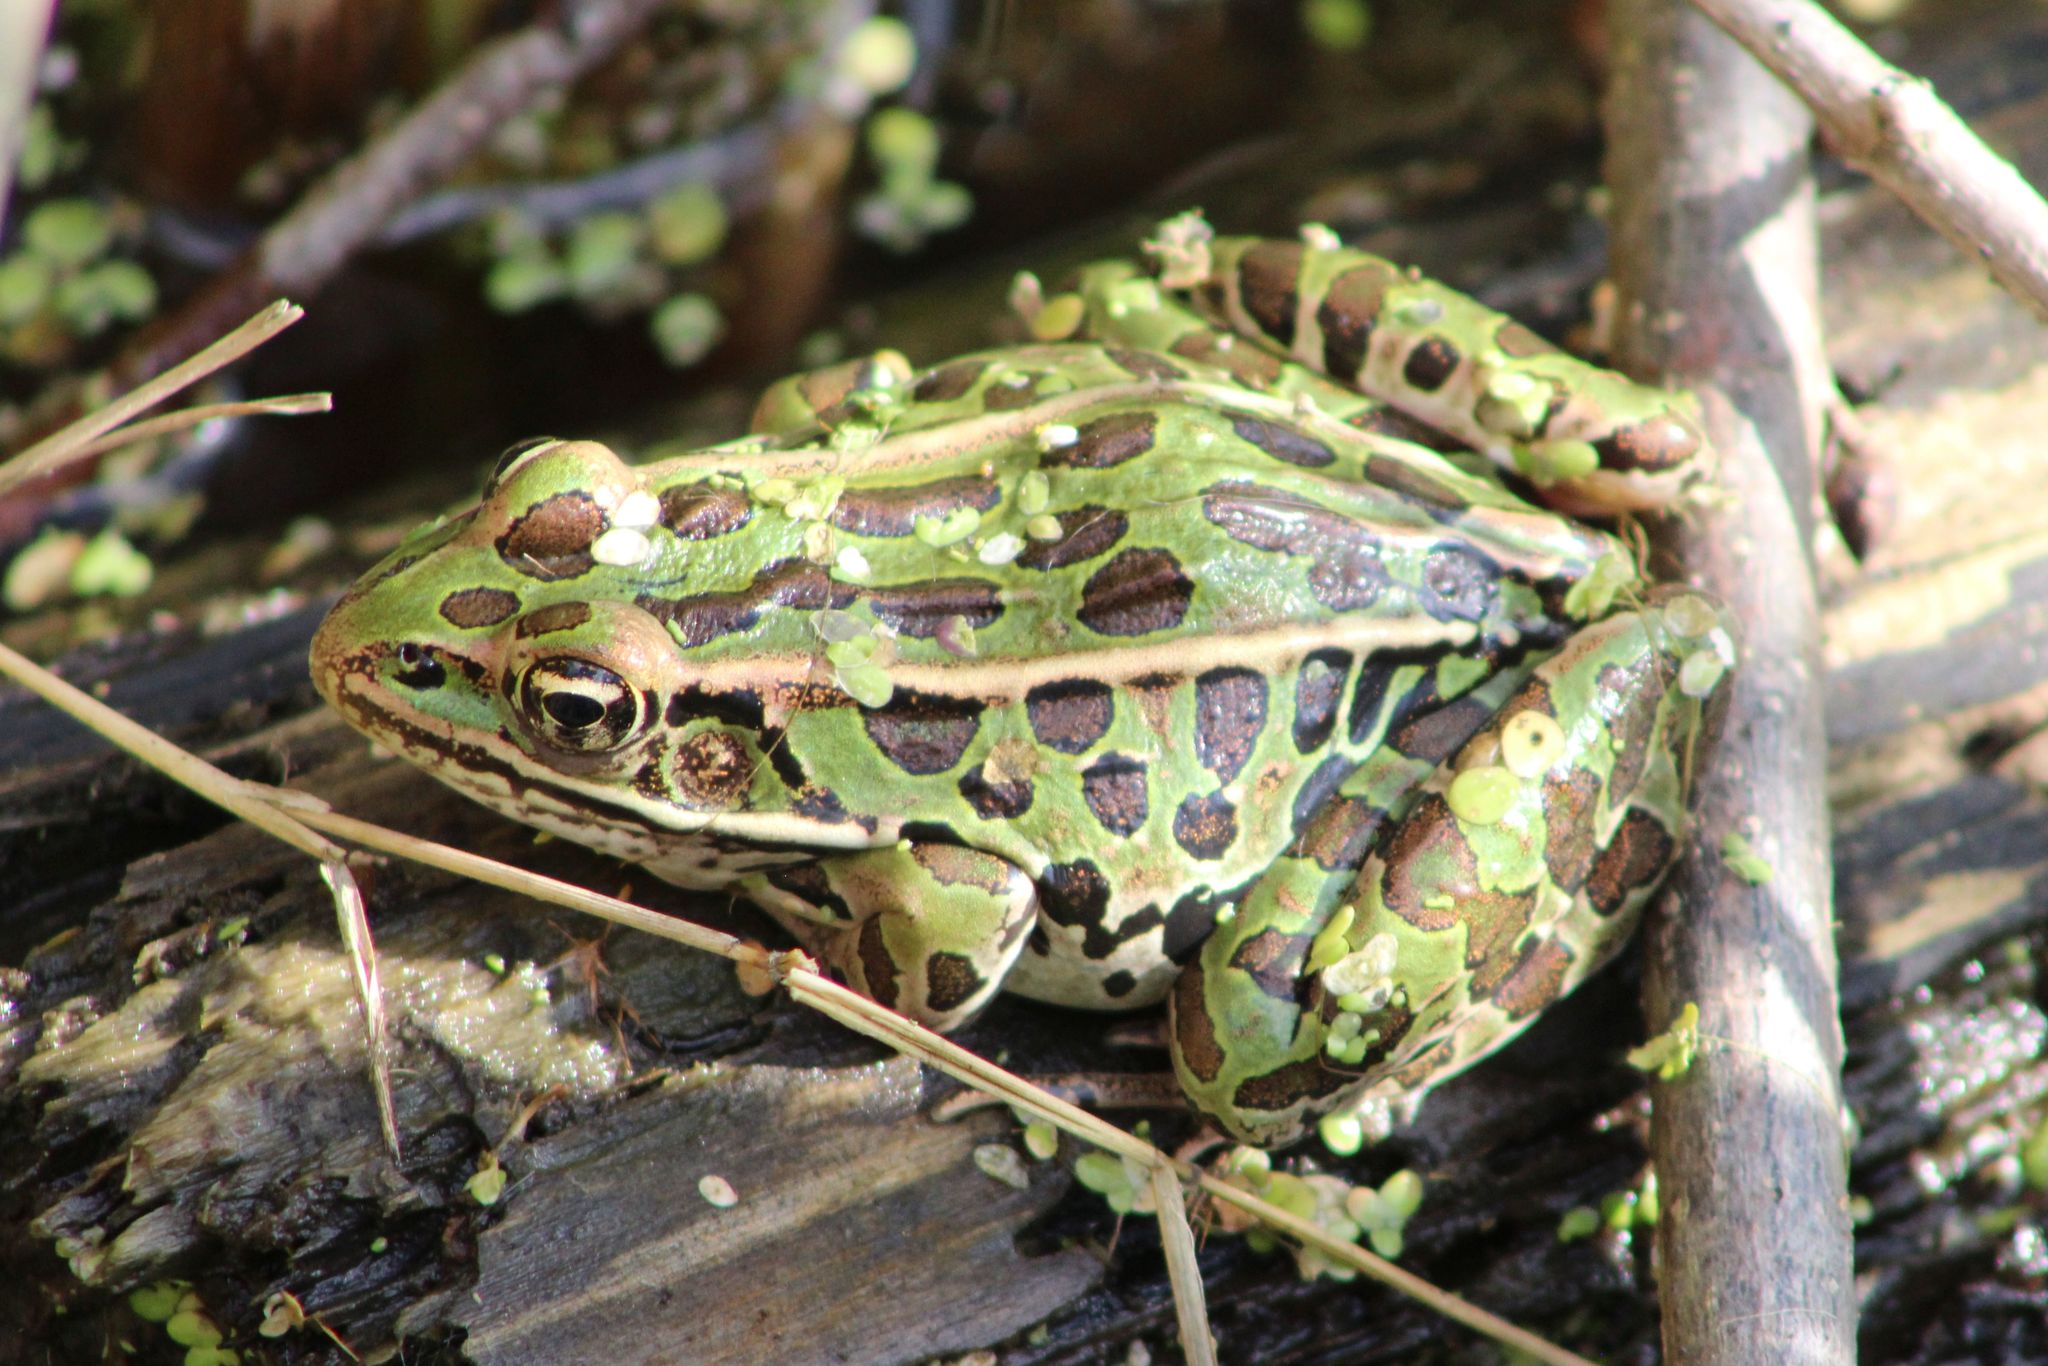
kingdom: Animalia
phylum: Chordata
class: Amphibia
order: Anura
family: Ranidae
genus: Lithobates
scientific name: Lithobates pipiens
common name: Northern leopard frog
